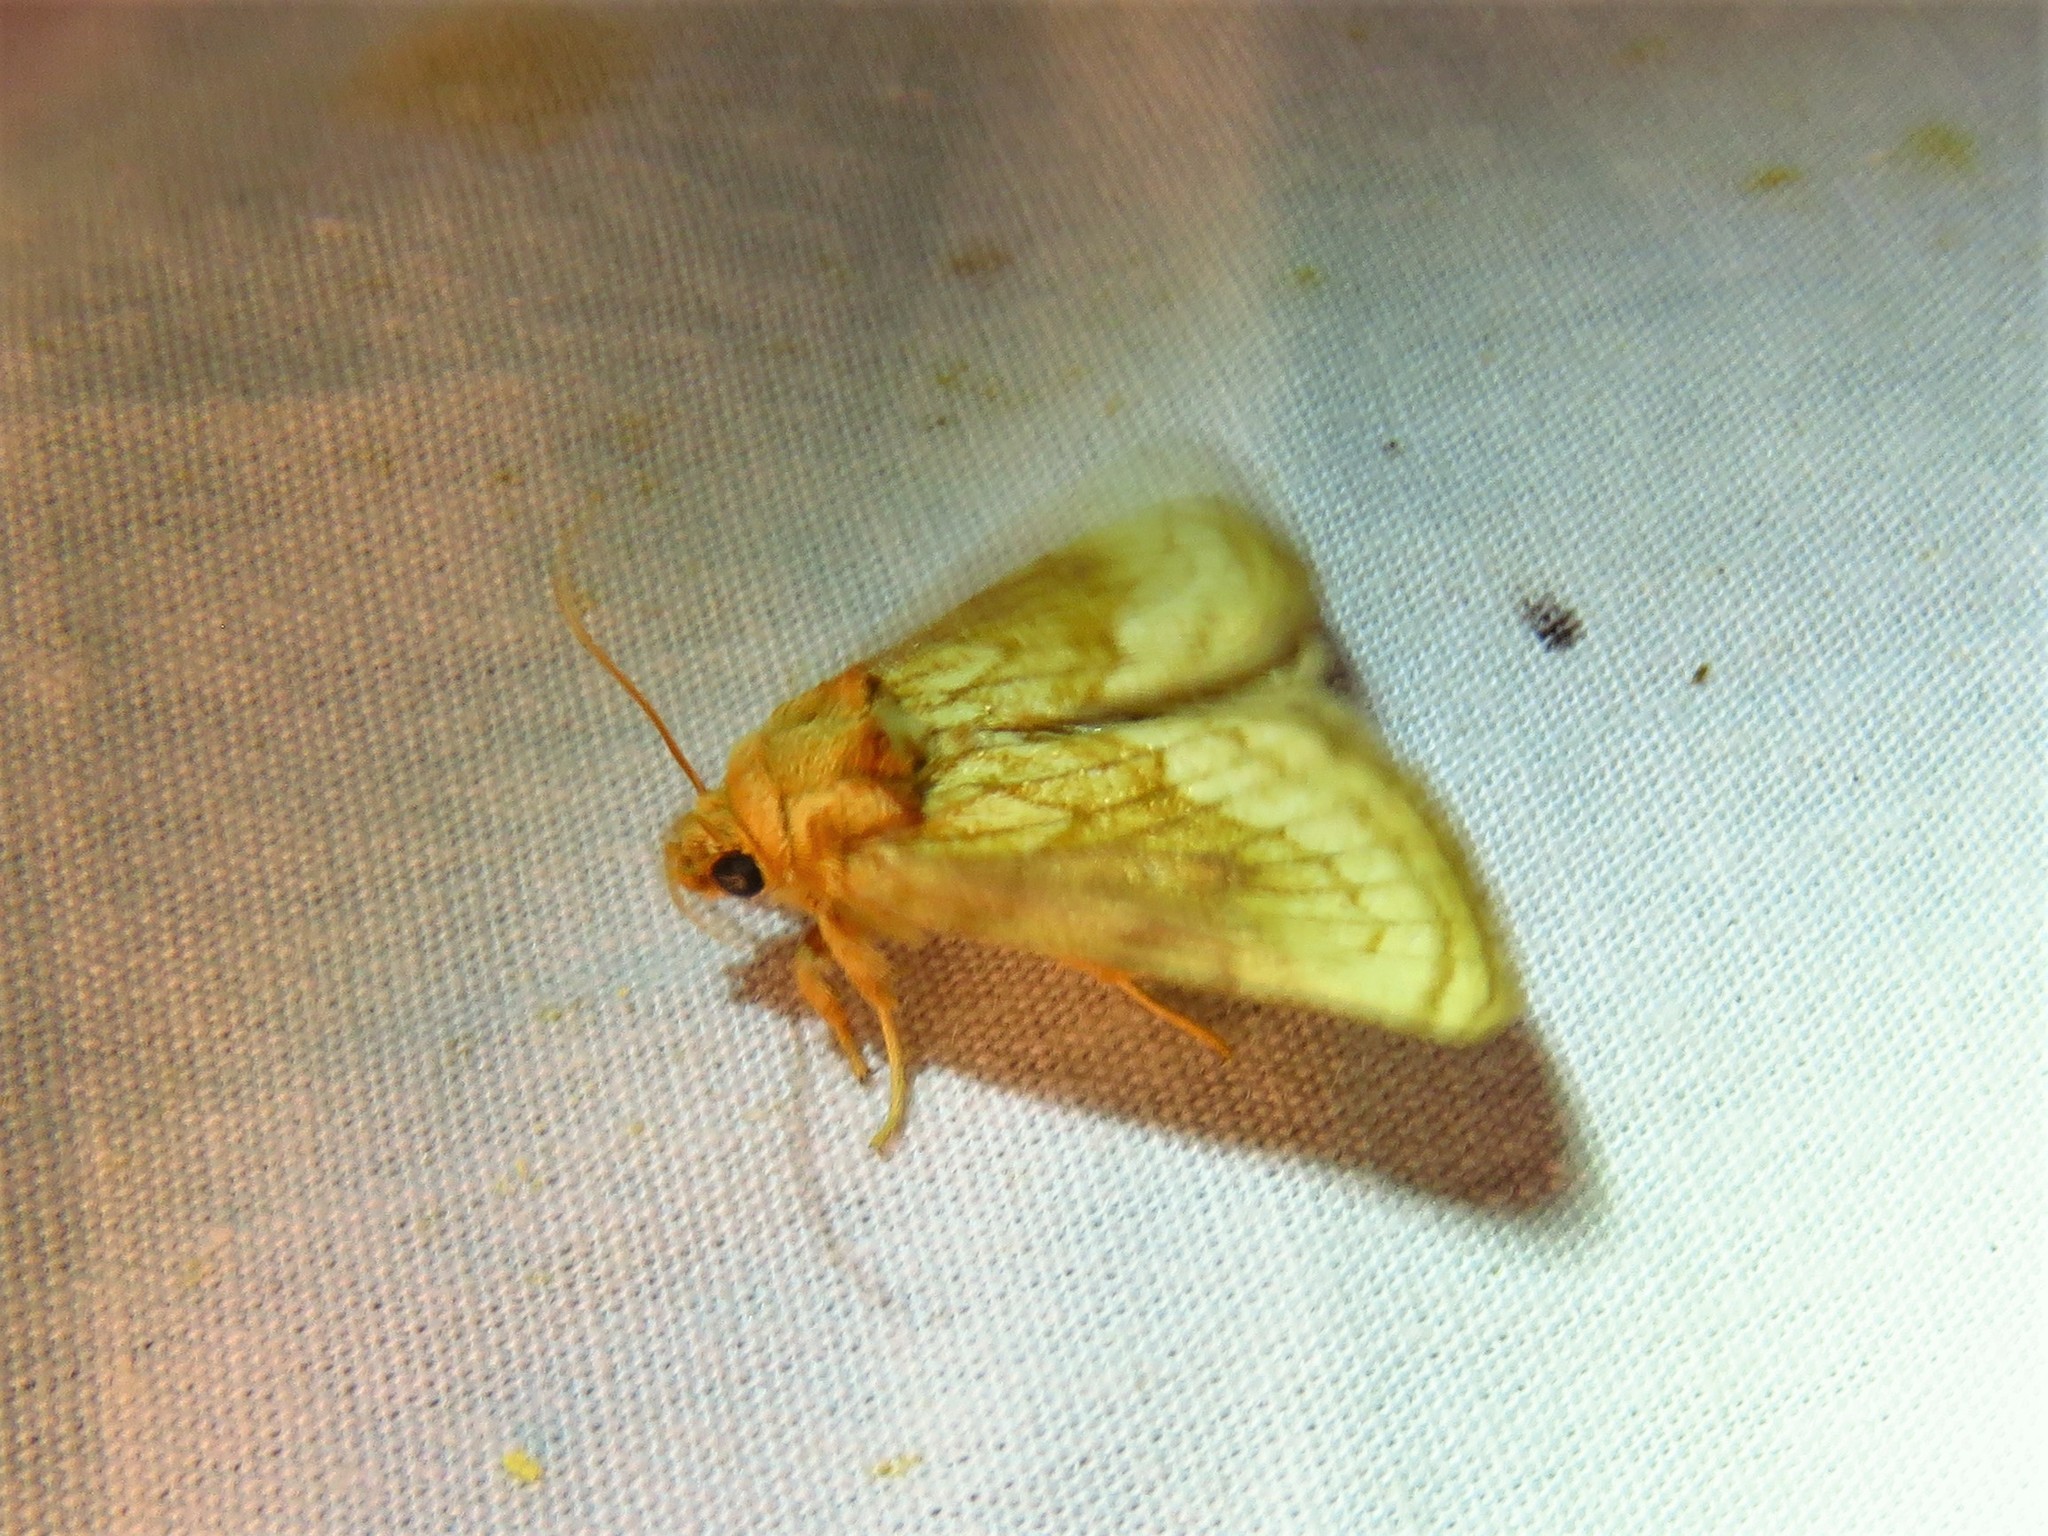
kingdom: Animalia
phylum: Arthropoda
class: Insecta
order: Lepidoptera
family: Noctuidae
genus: Nocloa
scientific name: Nocloa duplicatus
